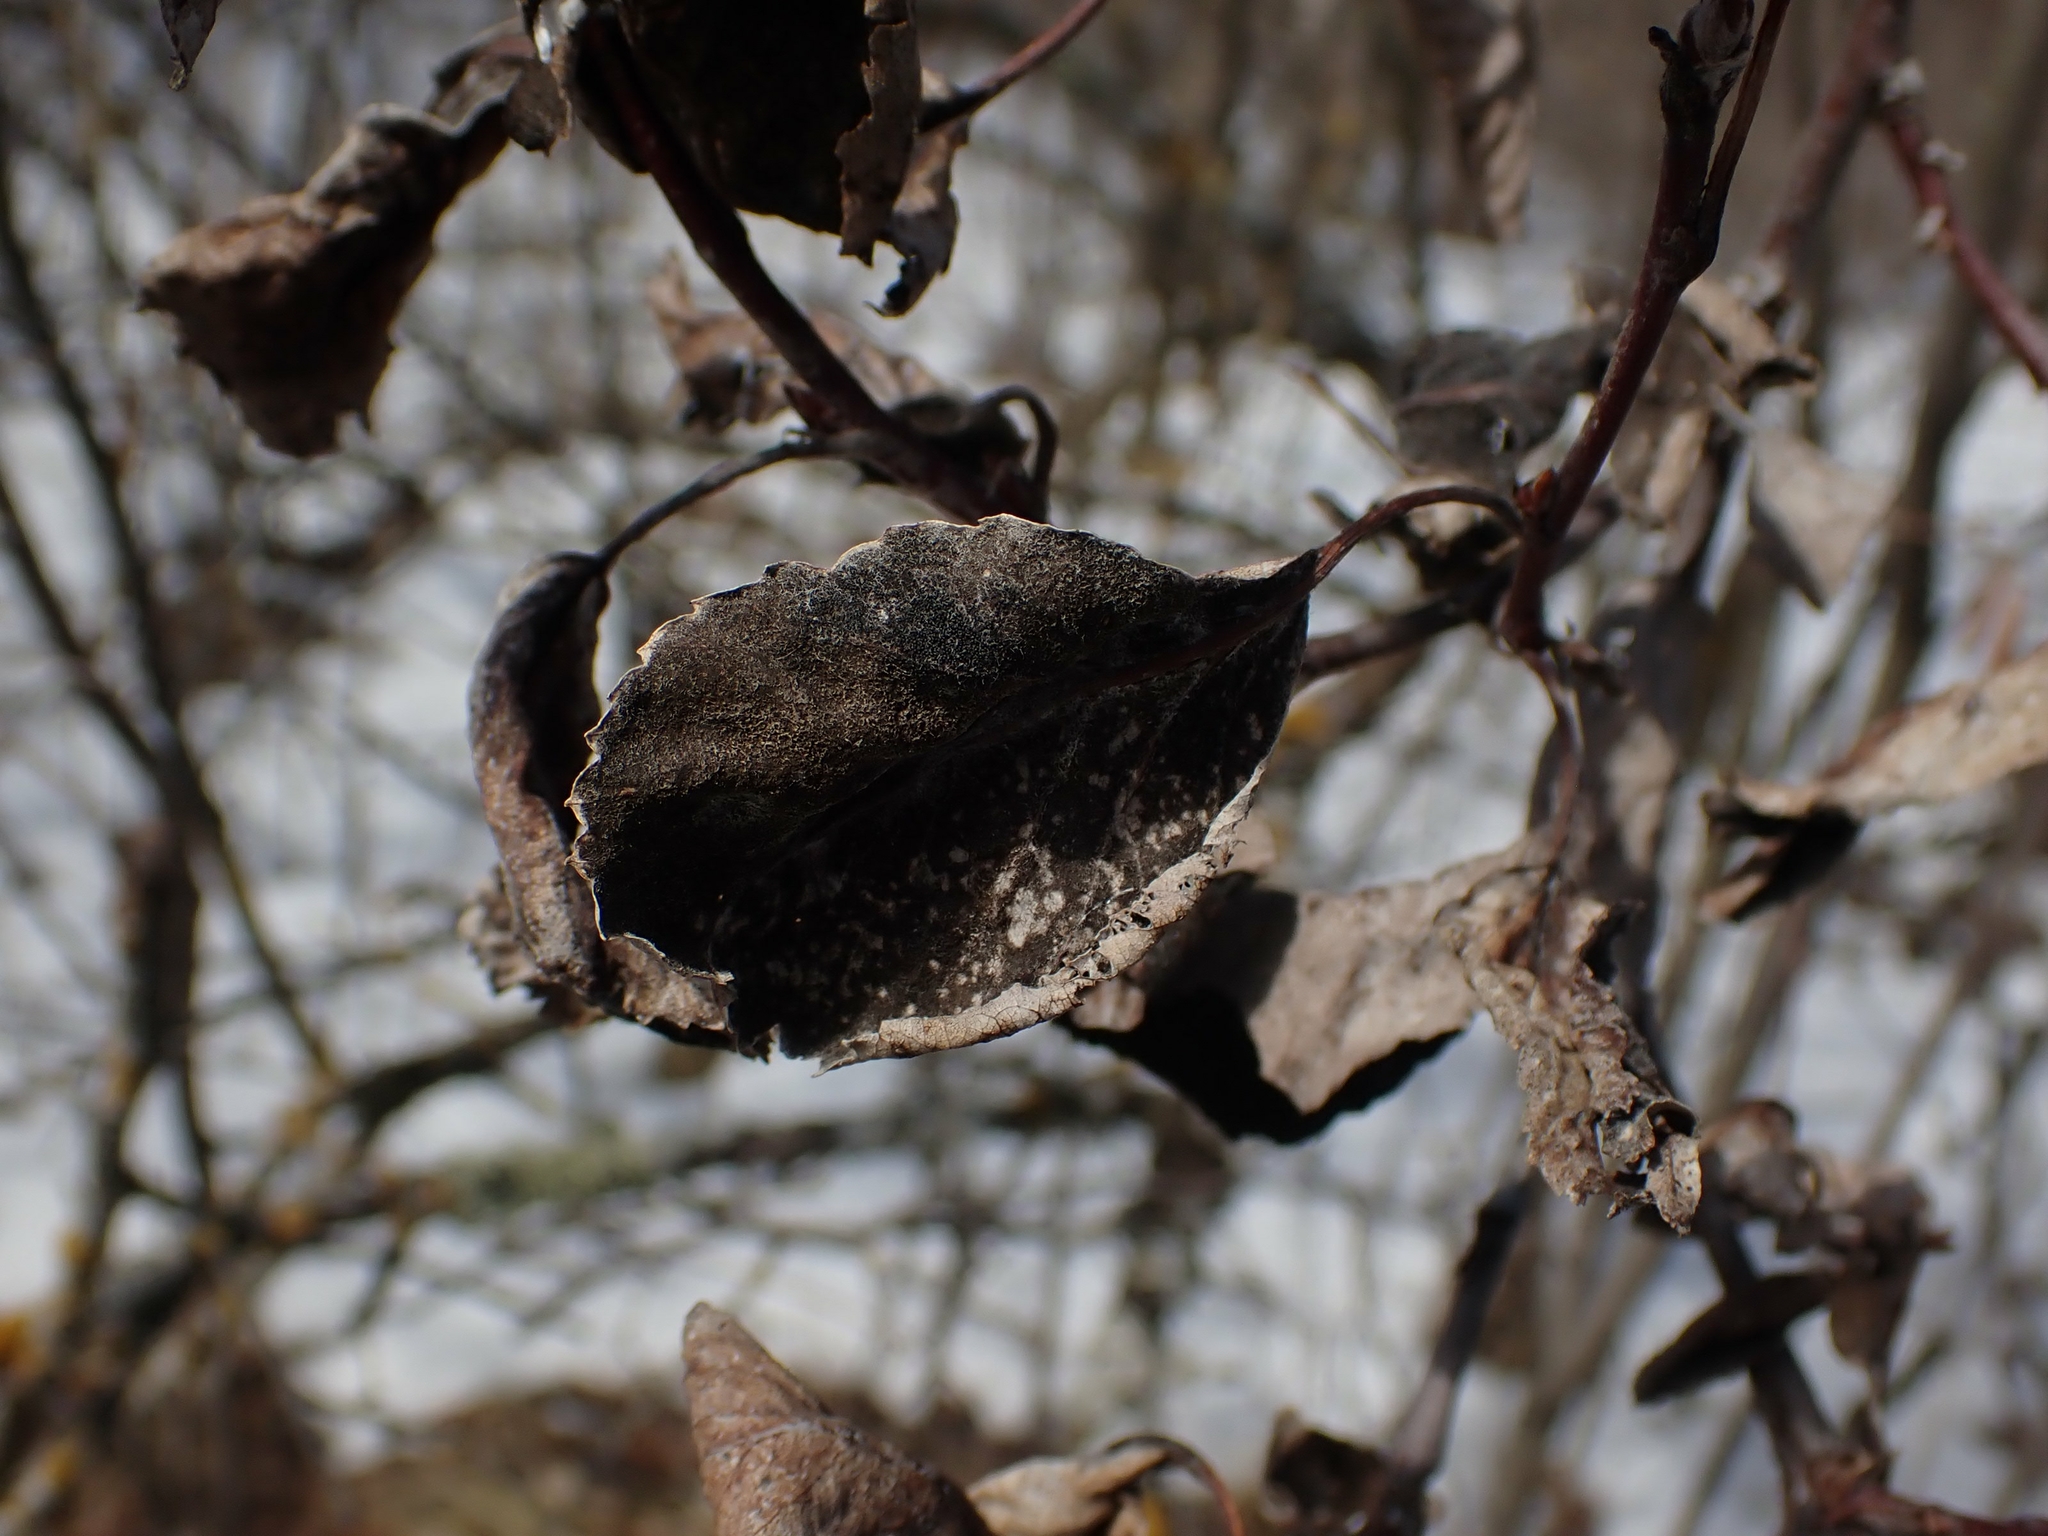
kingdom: Fungi
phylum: Ascomycota
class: Dothideomycetes
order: Venturiales
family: Venturiaceae
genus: Apiosporina
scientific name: Apiosporina collinsii
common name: Black leaf
